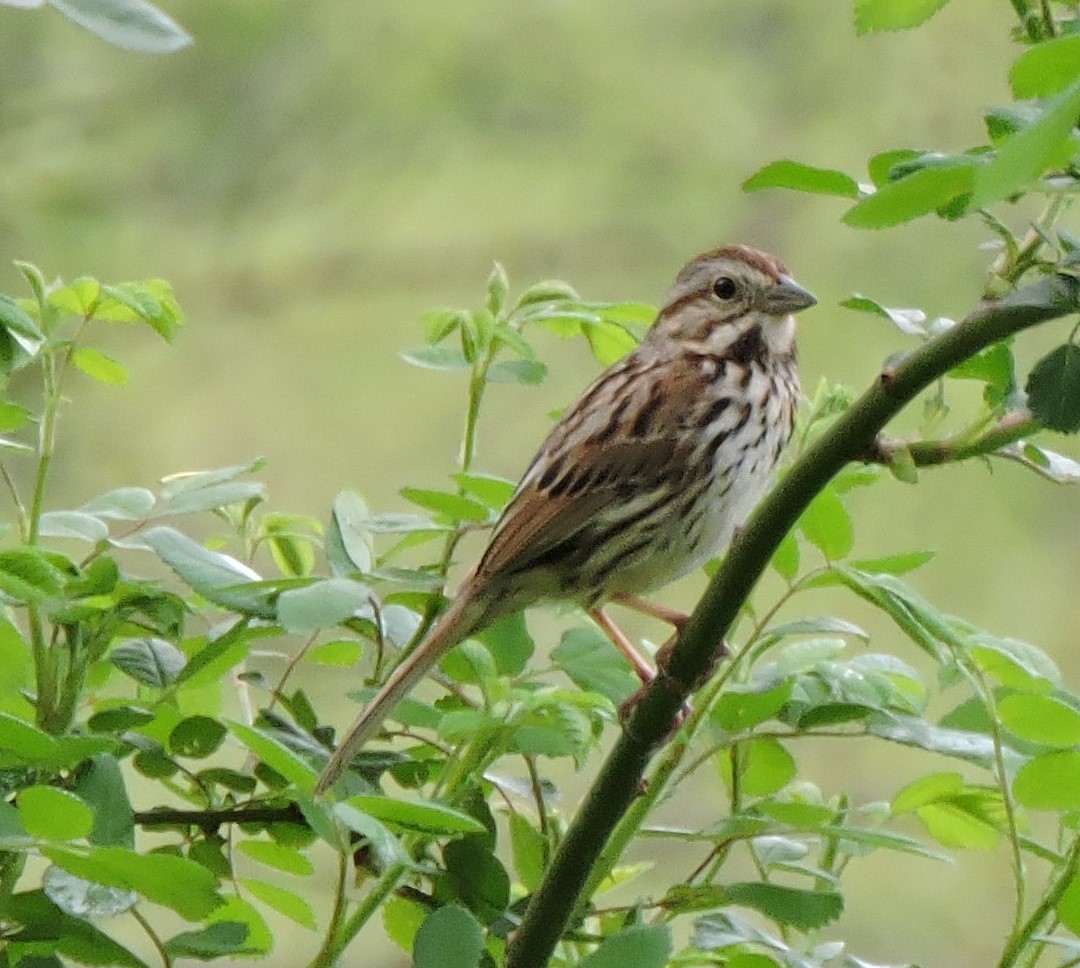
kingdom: Animalia
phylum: Chordata
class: Aves
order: Passeriformes
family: Passerellidae
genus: Melospiza
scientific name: Melospiza melodia
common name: Song sparrow
